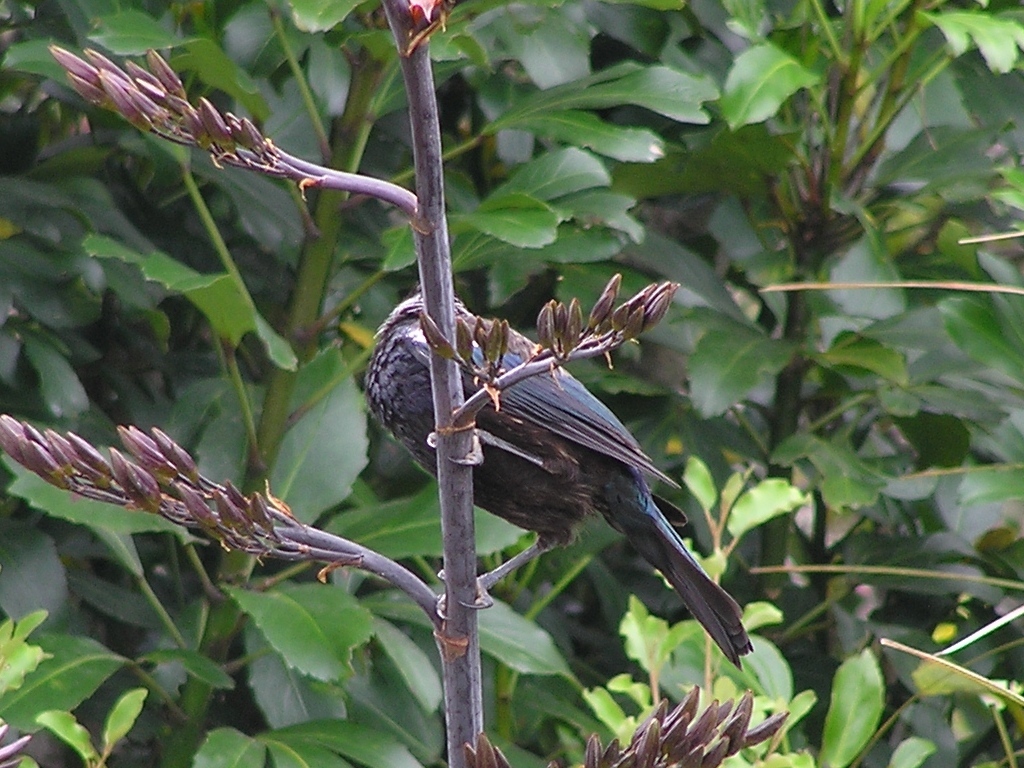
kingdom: Animalia
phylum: Chordata
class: Aves
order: Passeriformes
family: Meliphagidae
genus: Prosthemadera
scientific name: Prosthemadera novaeseelandiae
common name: Tui
